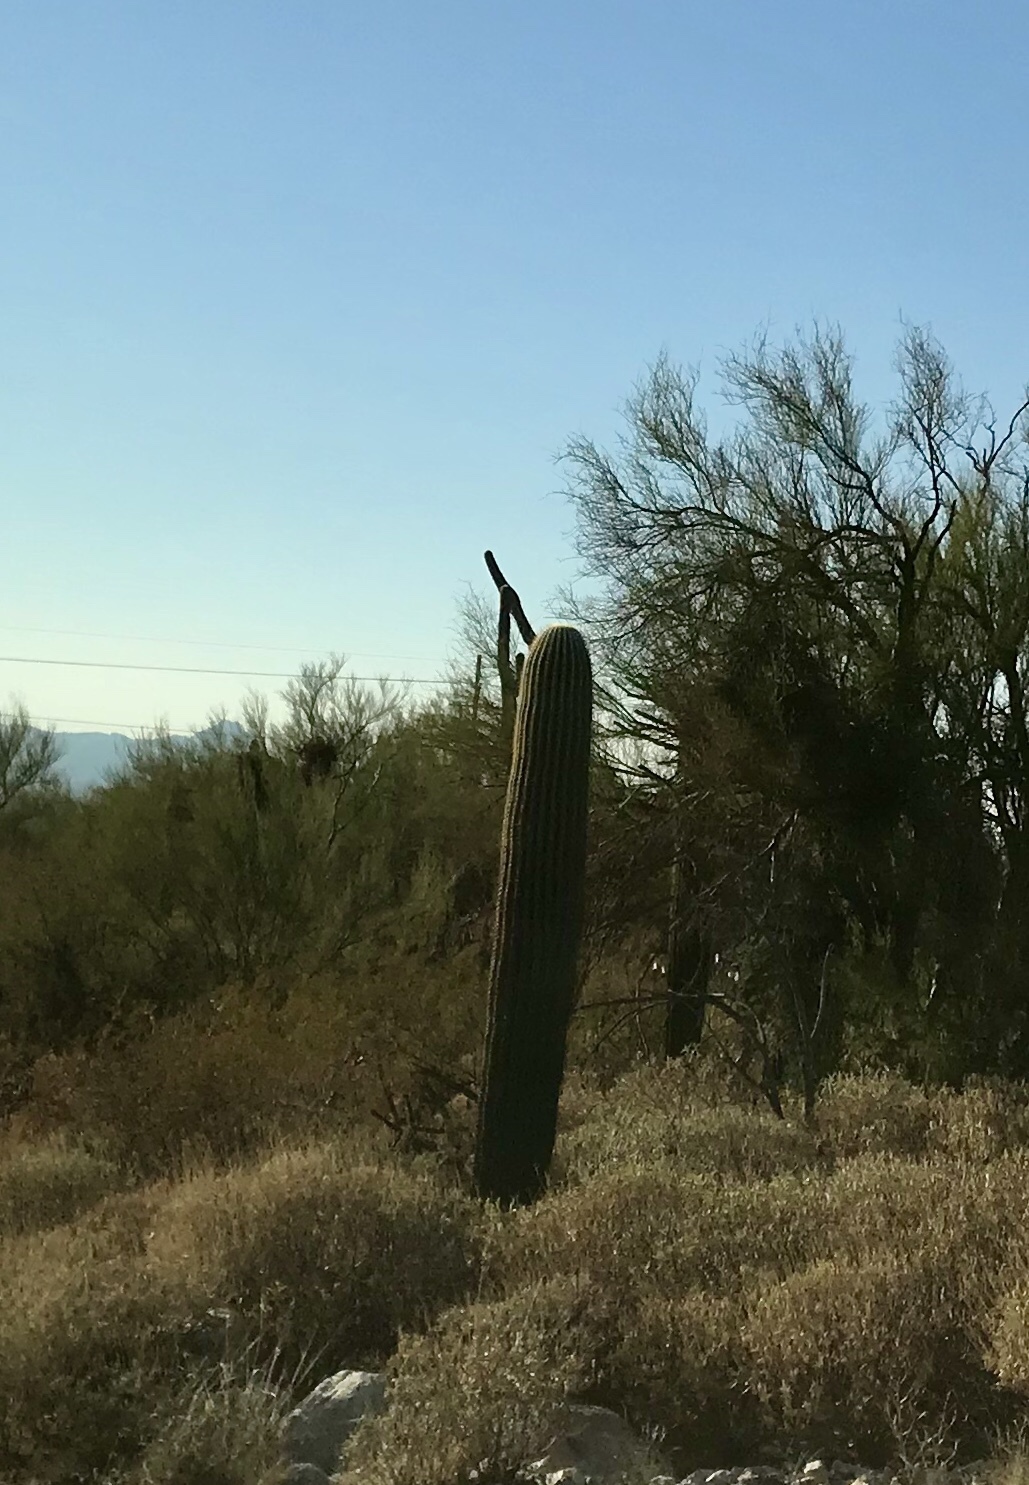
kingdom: Plantae
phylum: Tracheophyta
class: Magnoliopsida
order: Caryophyllales
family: Cactaceae
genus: Carnegiea
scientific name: Carnegiea gigantea
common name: Saguaro
